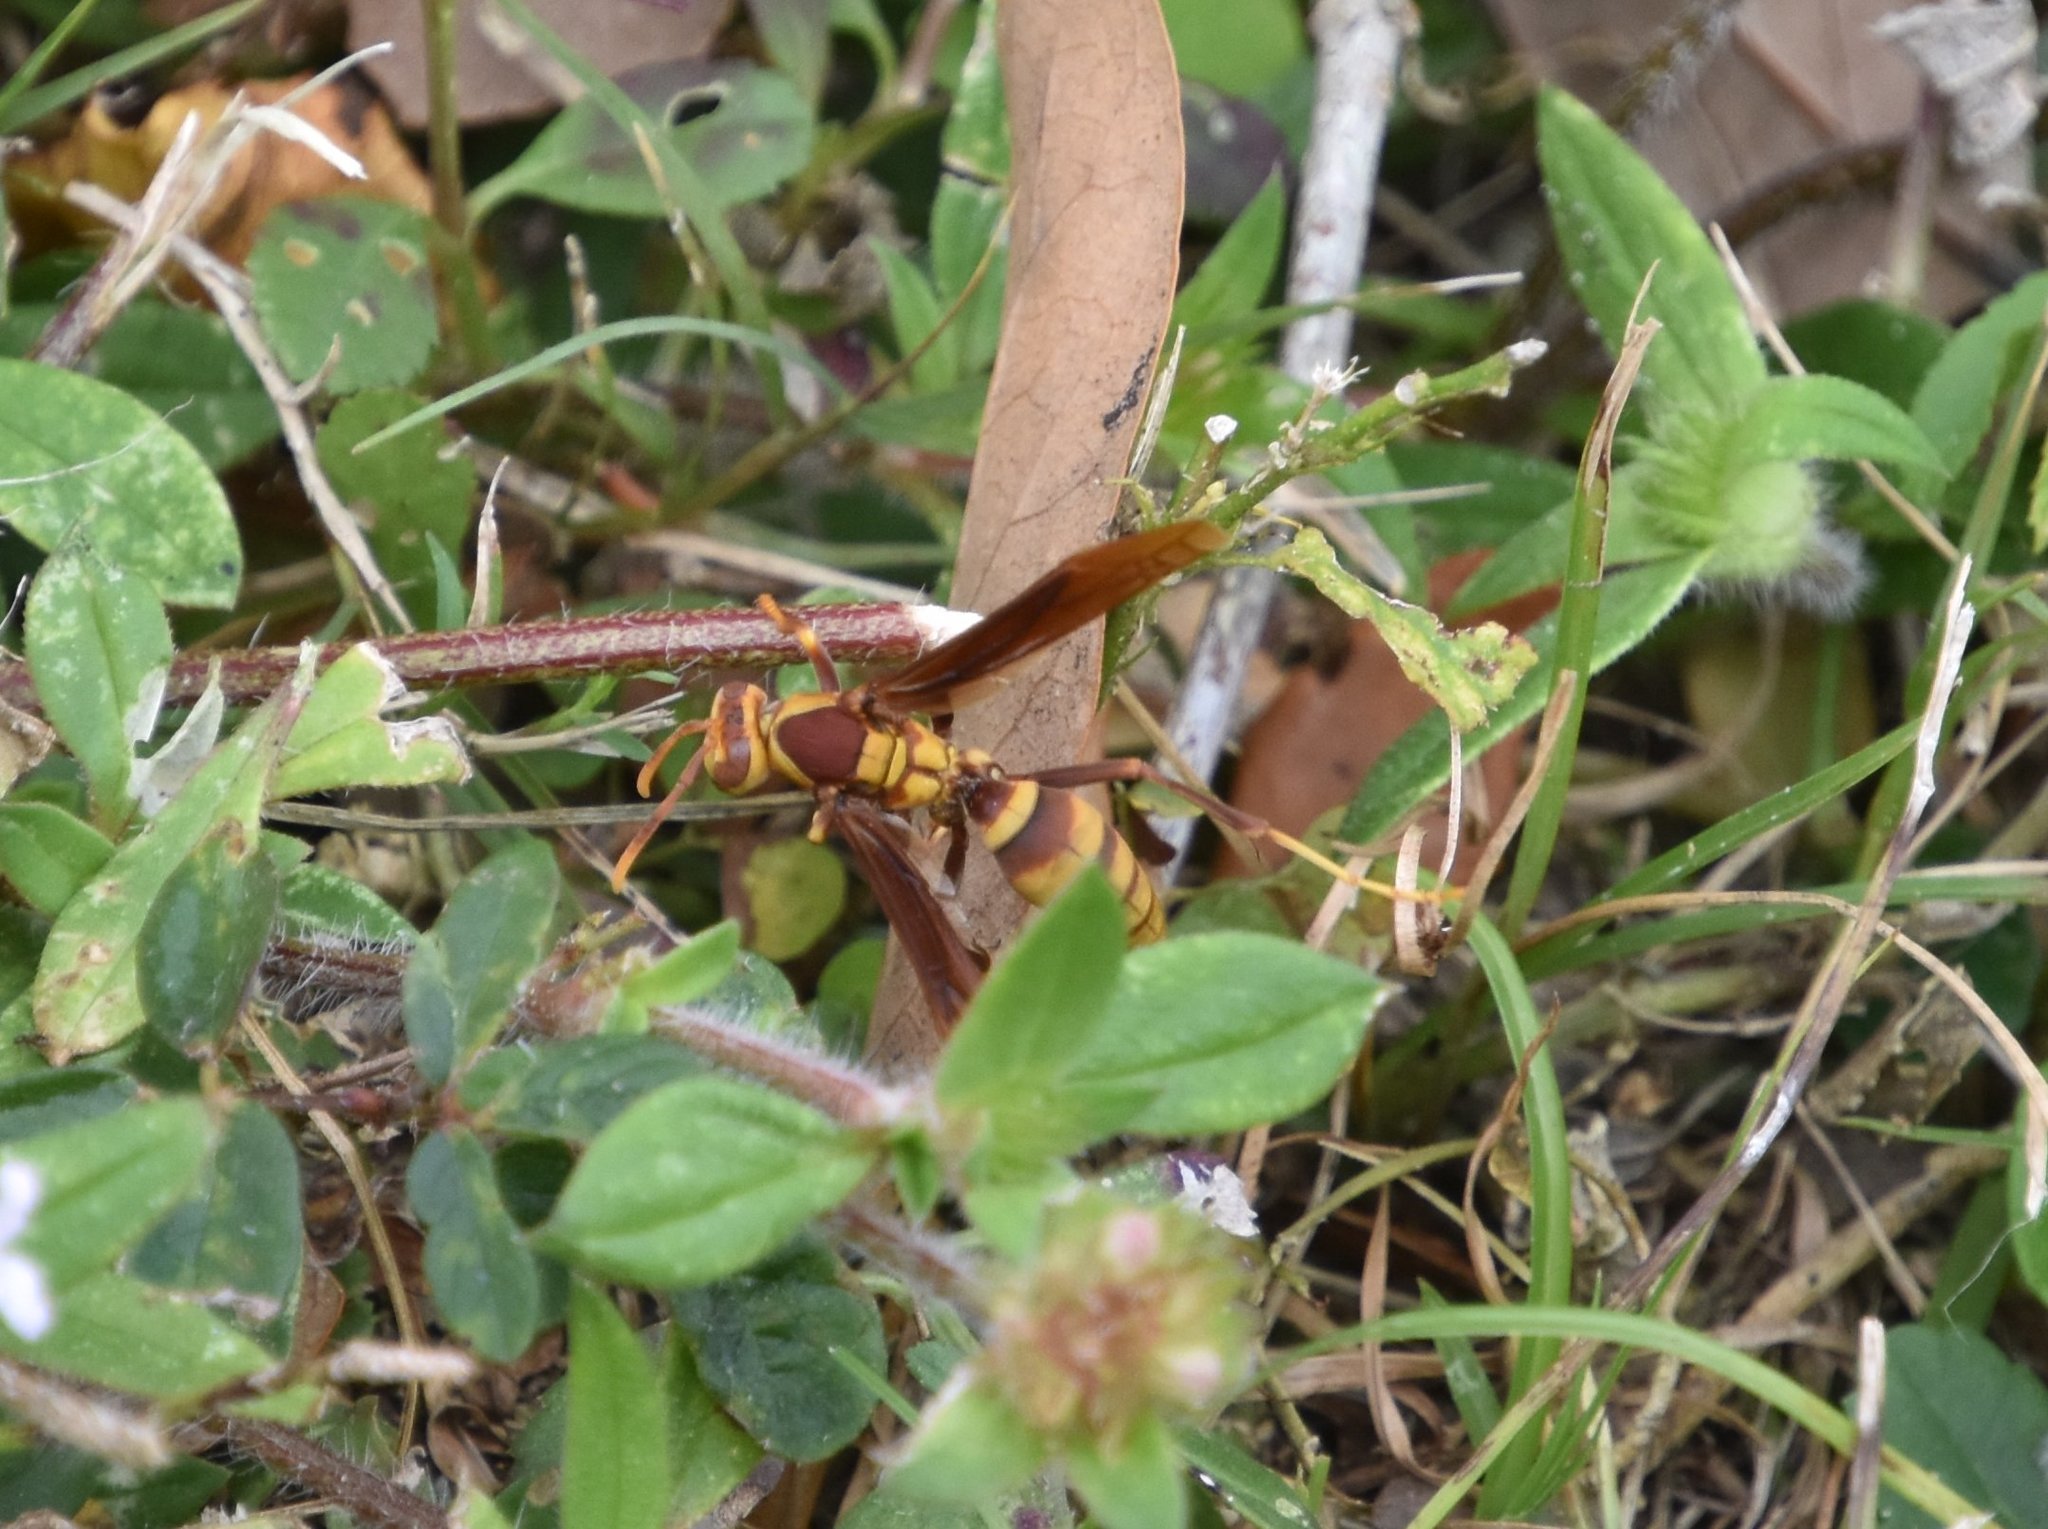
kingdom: Animalia
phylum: Arthropoda
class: Insecta
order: Hymenoptera
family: Eumenidae
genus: Polistes
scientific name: Polistes major
